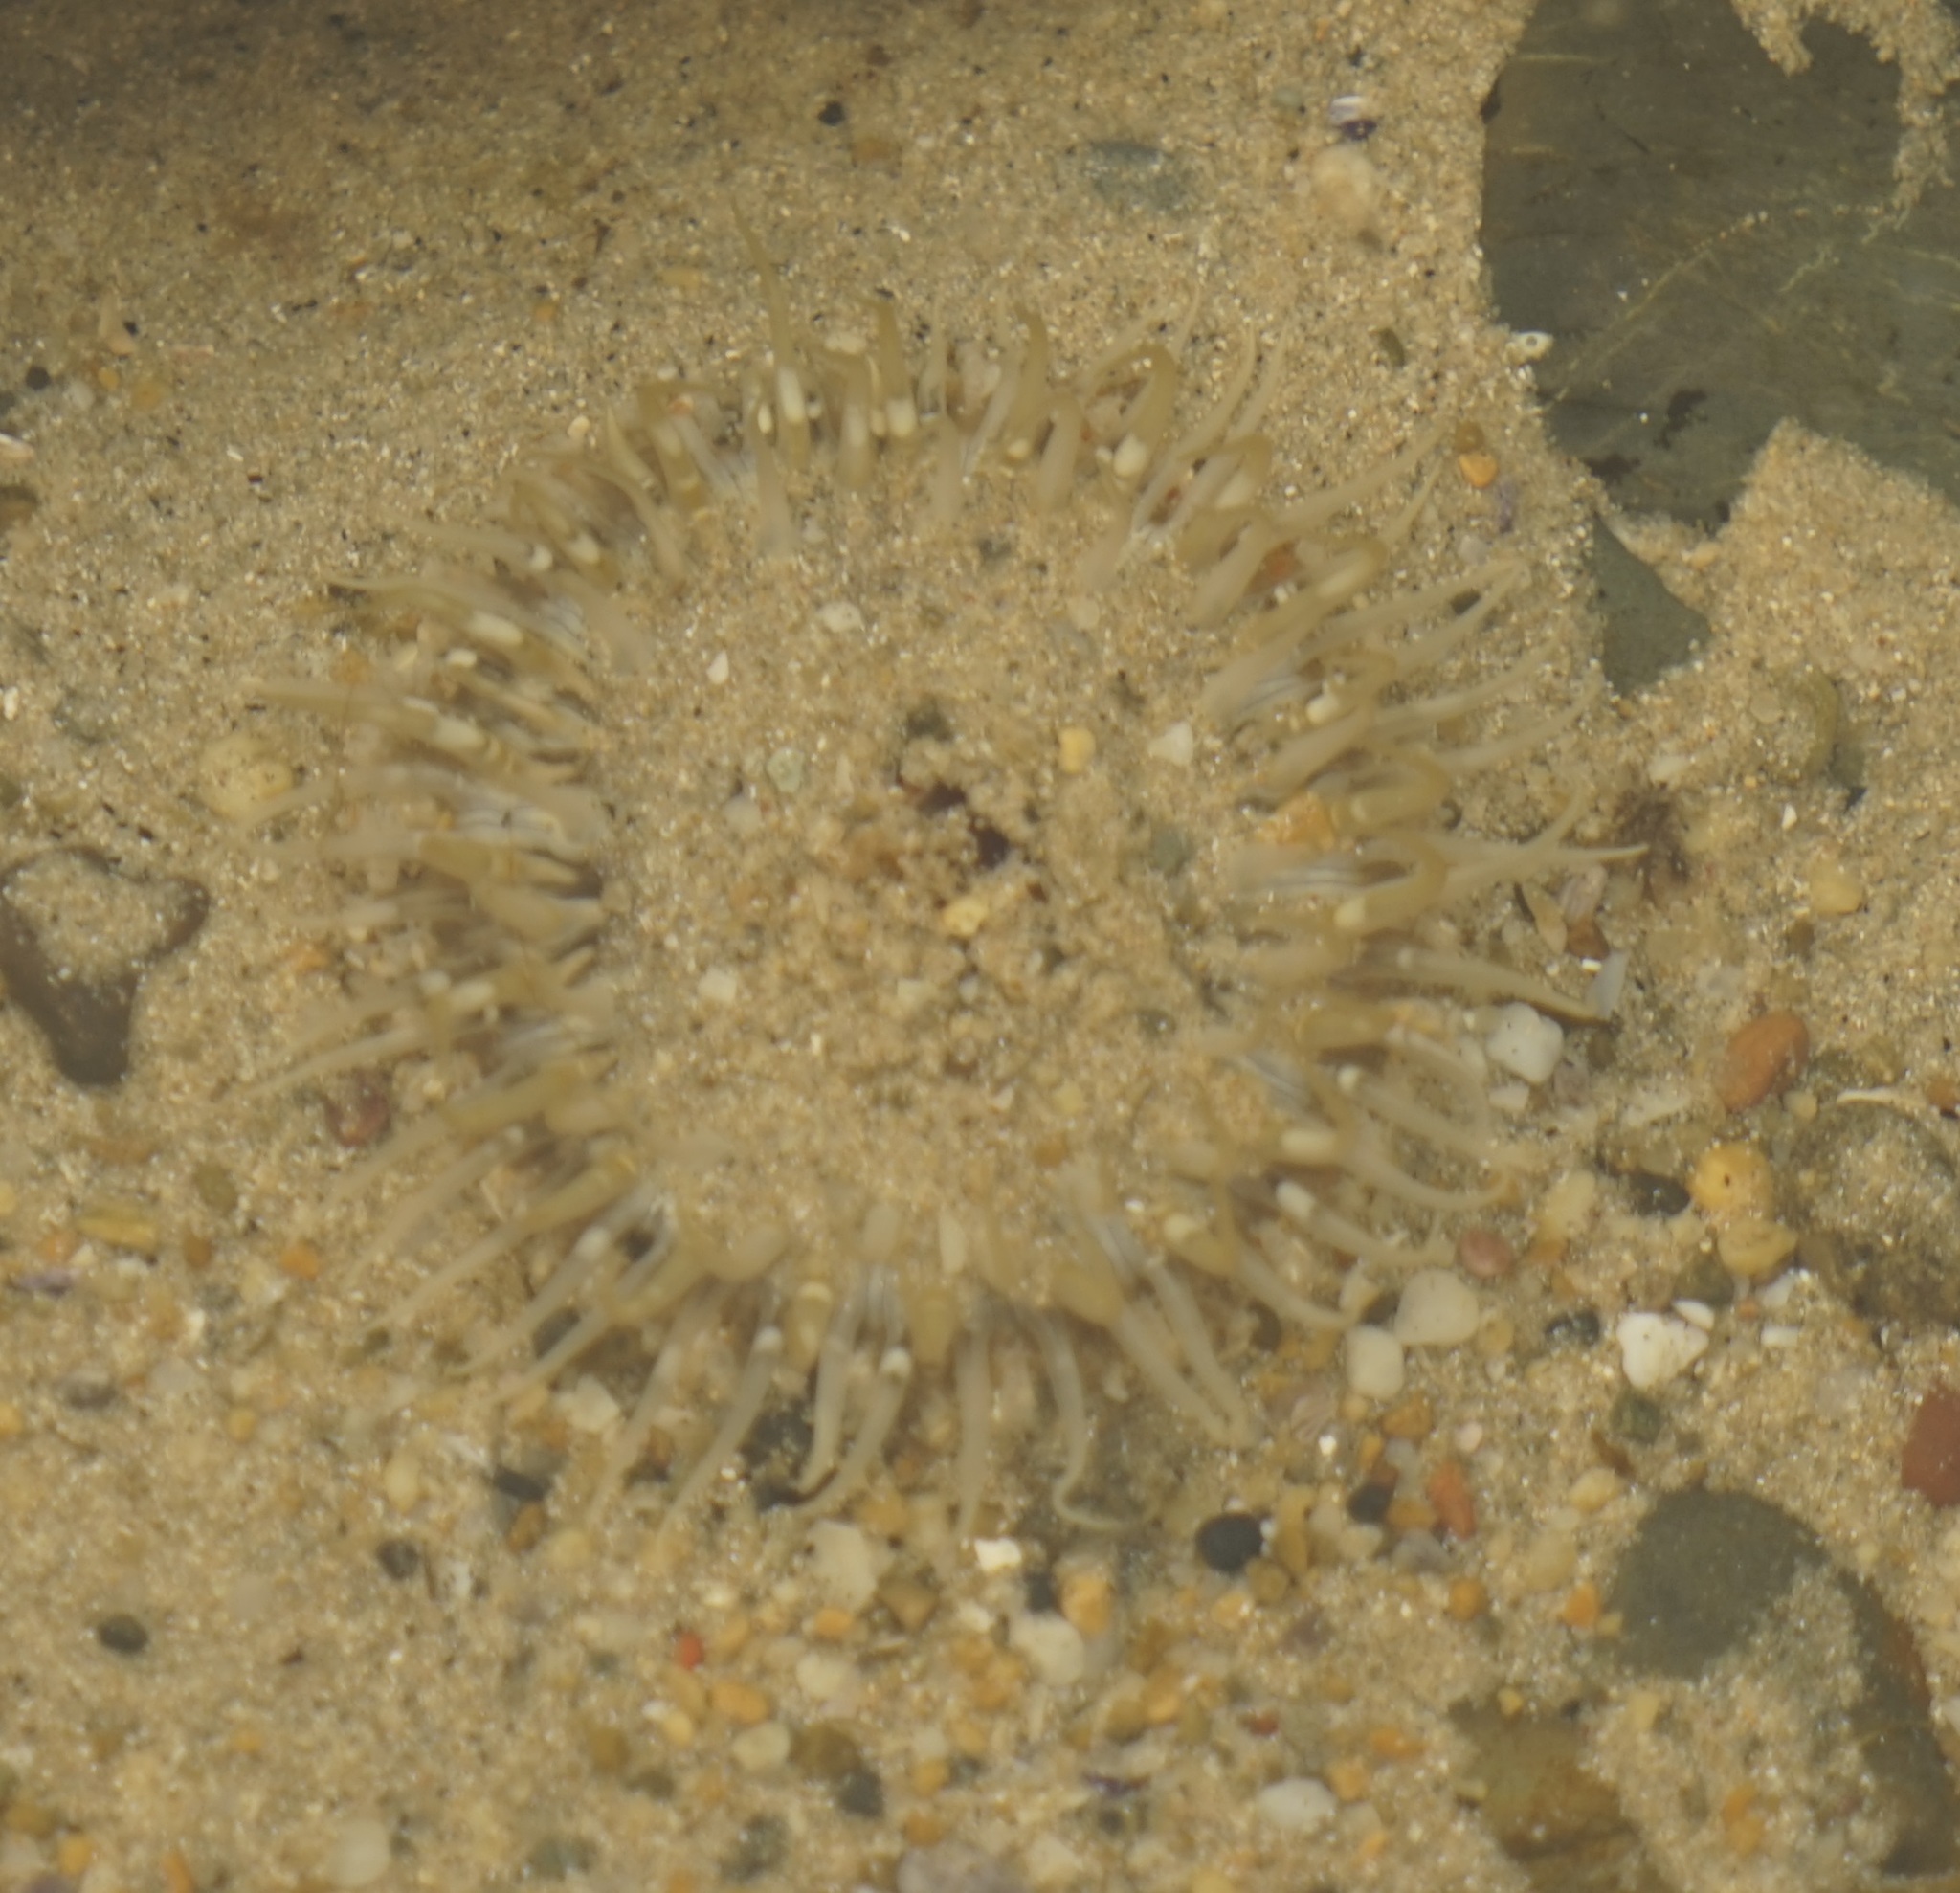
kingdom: Animalia
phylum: Cnidaria
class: Anthozoa
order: Actiniaria
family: Actiniidae
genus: Oulactis
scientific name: Oulactis muscosa
